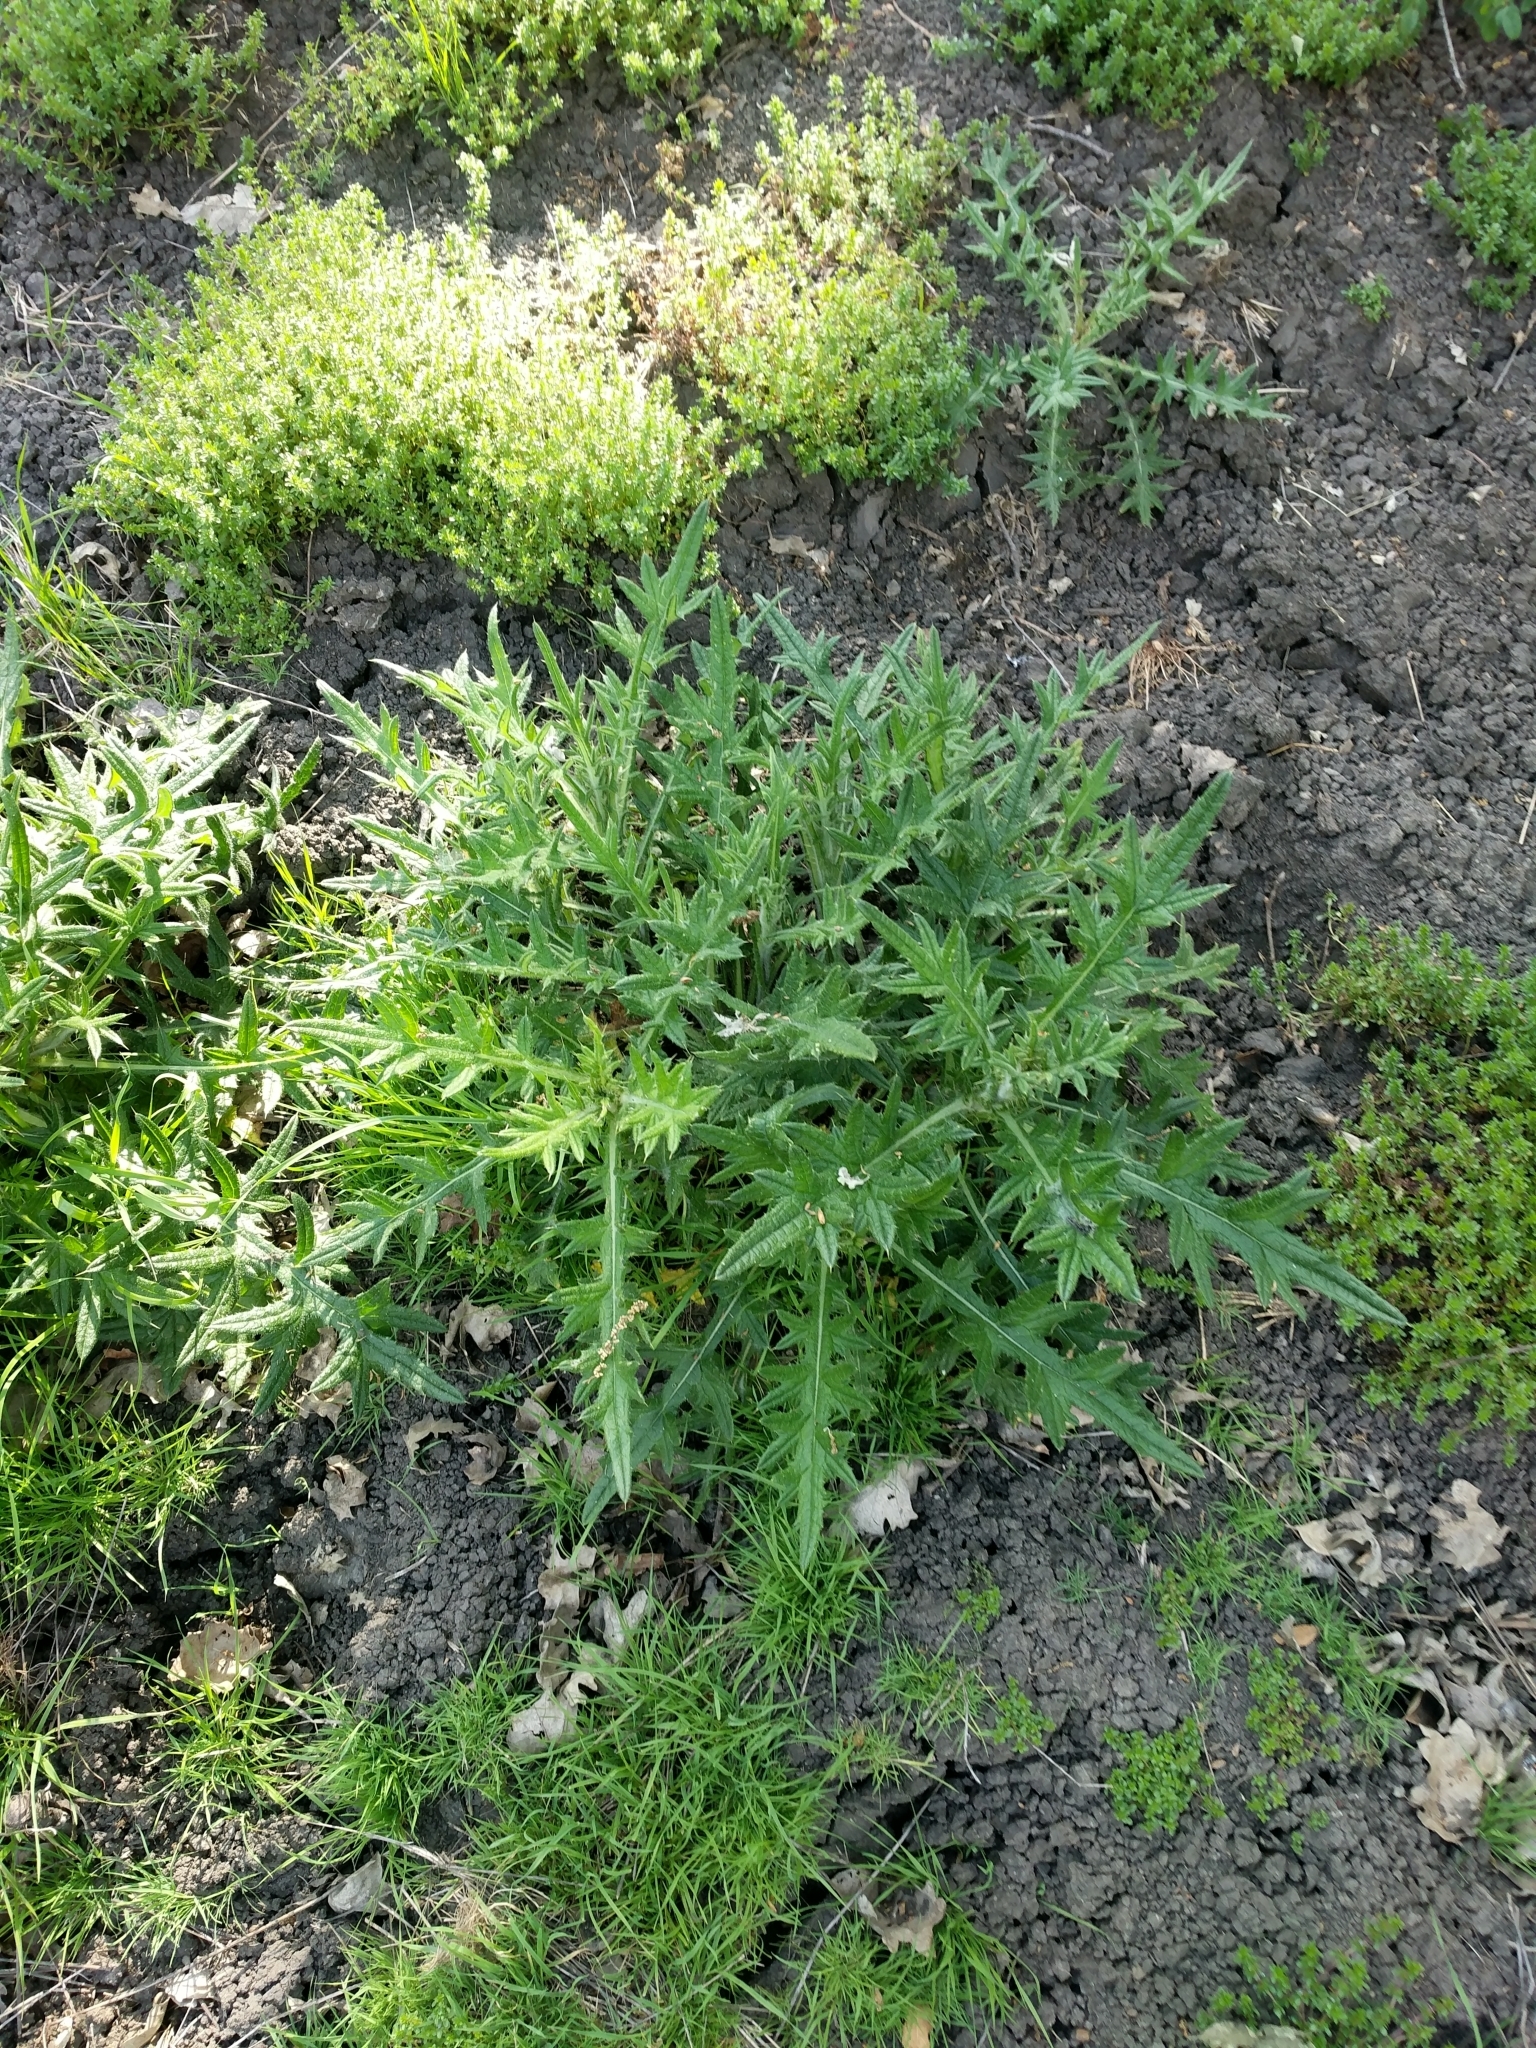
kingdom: Plantae
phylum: Tracheophyta
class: Magnoliopsida
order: Asterales
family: Asteraceae
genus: Cirsium
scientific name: Cirsium vulgare
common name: Bull thistle
